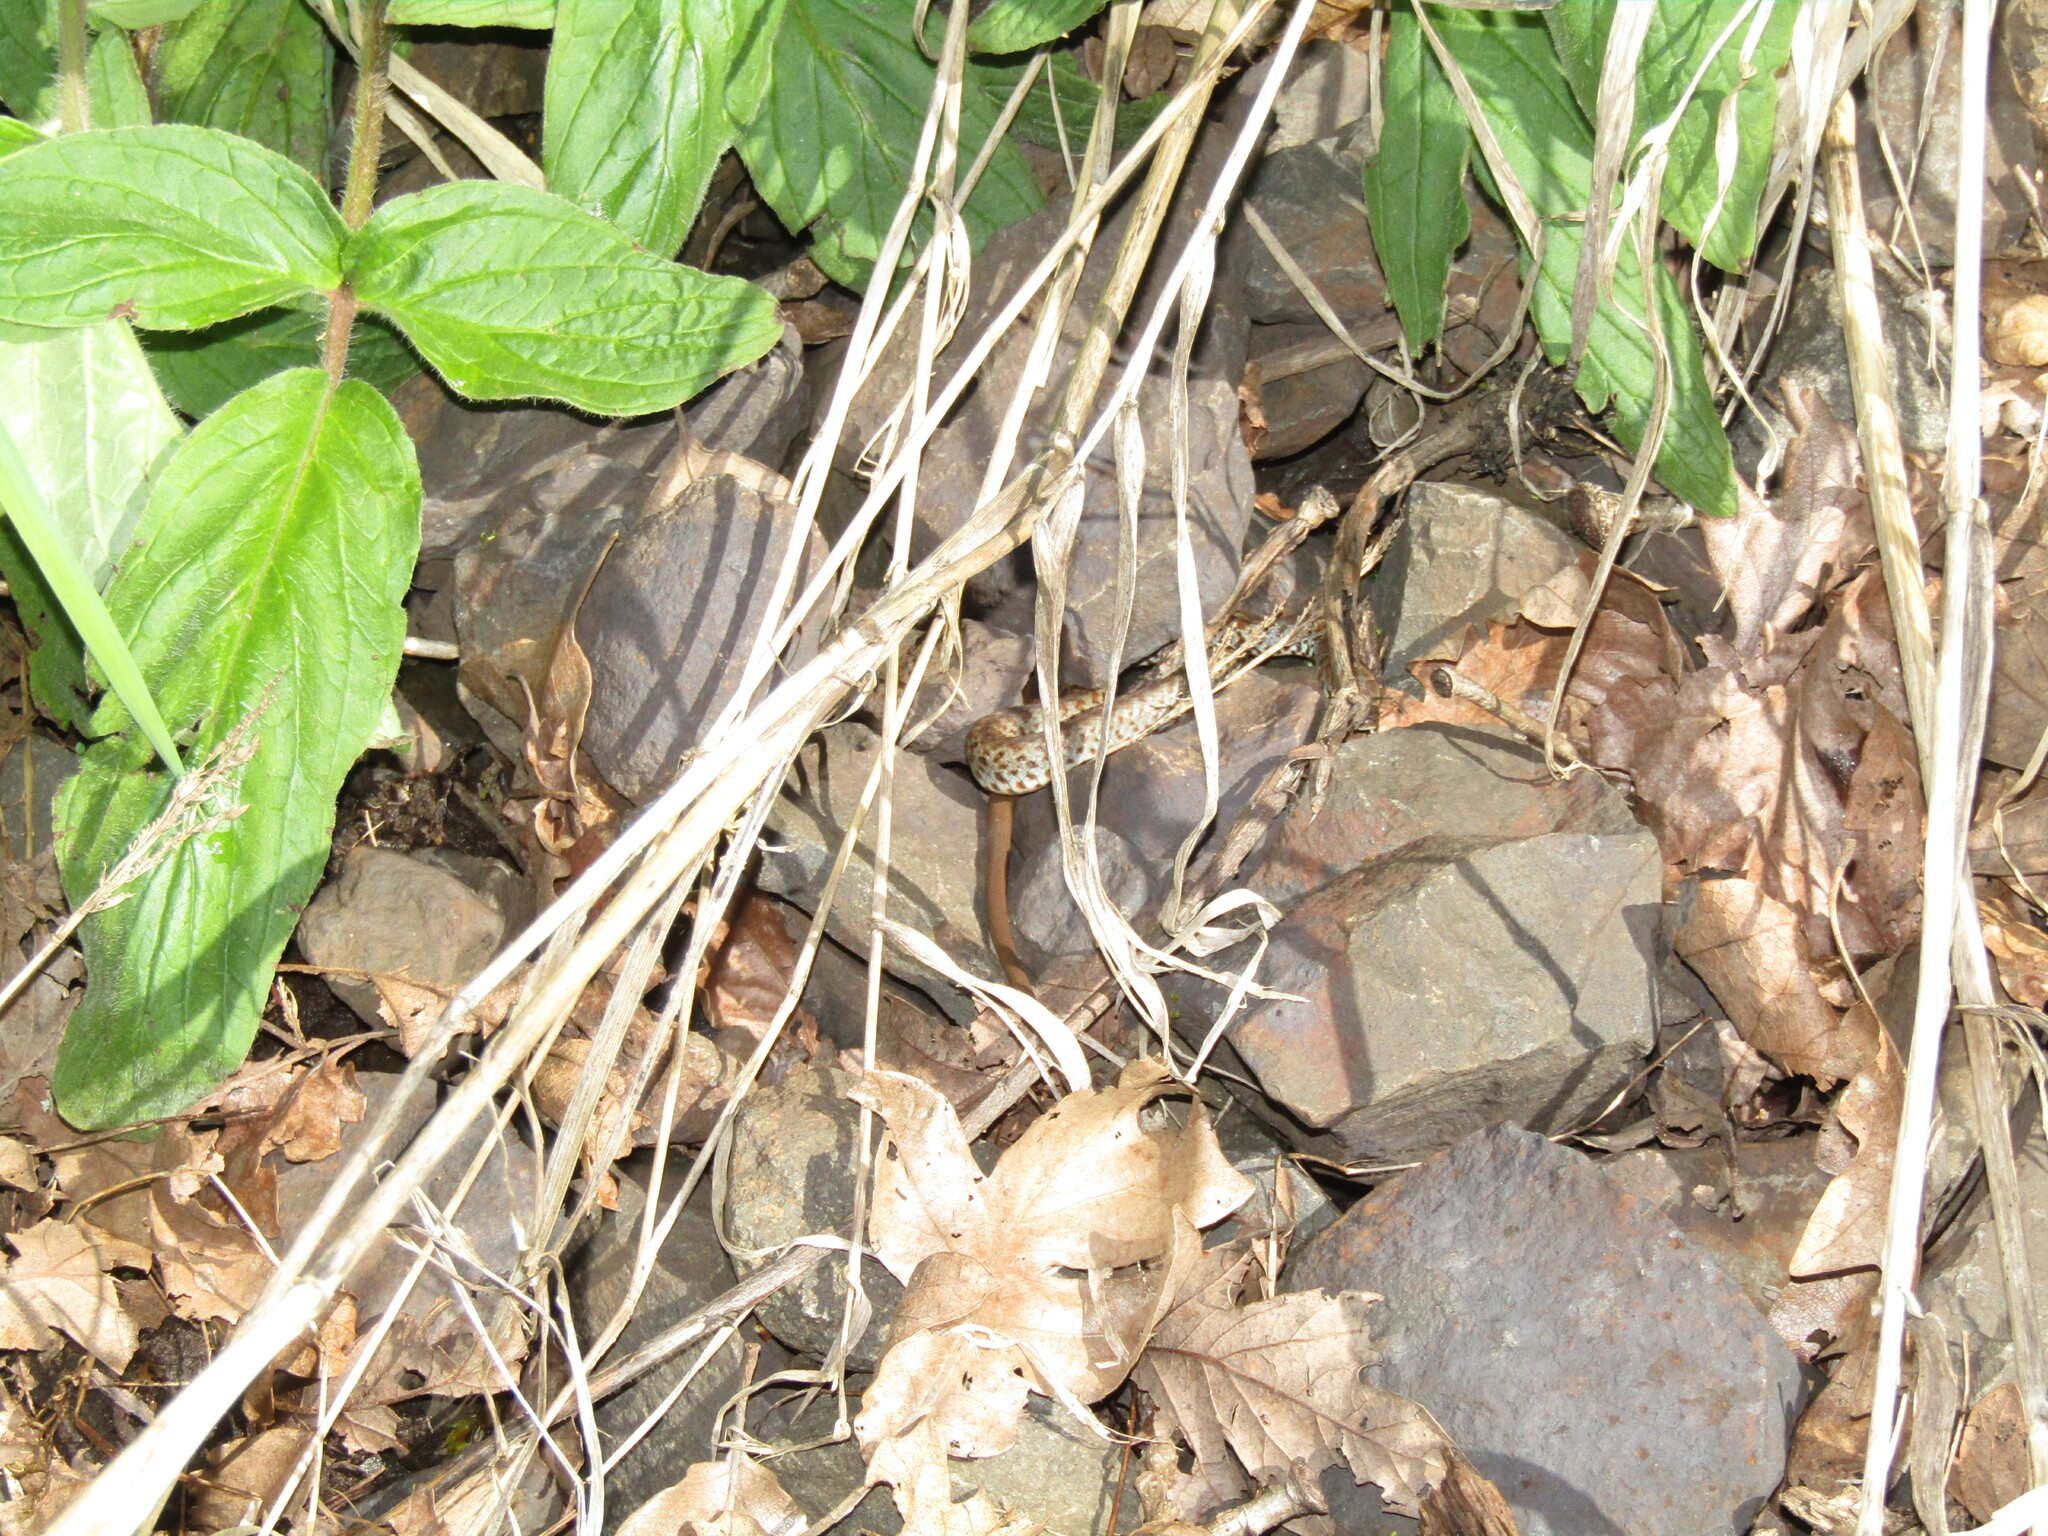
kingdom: Animalia
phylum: Chordata
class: Squamata
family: Colubridae
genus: Coluber
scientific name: Coluber constrictor
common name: Eastern racer
